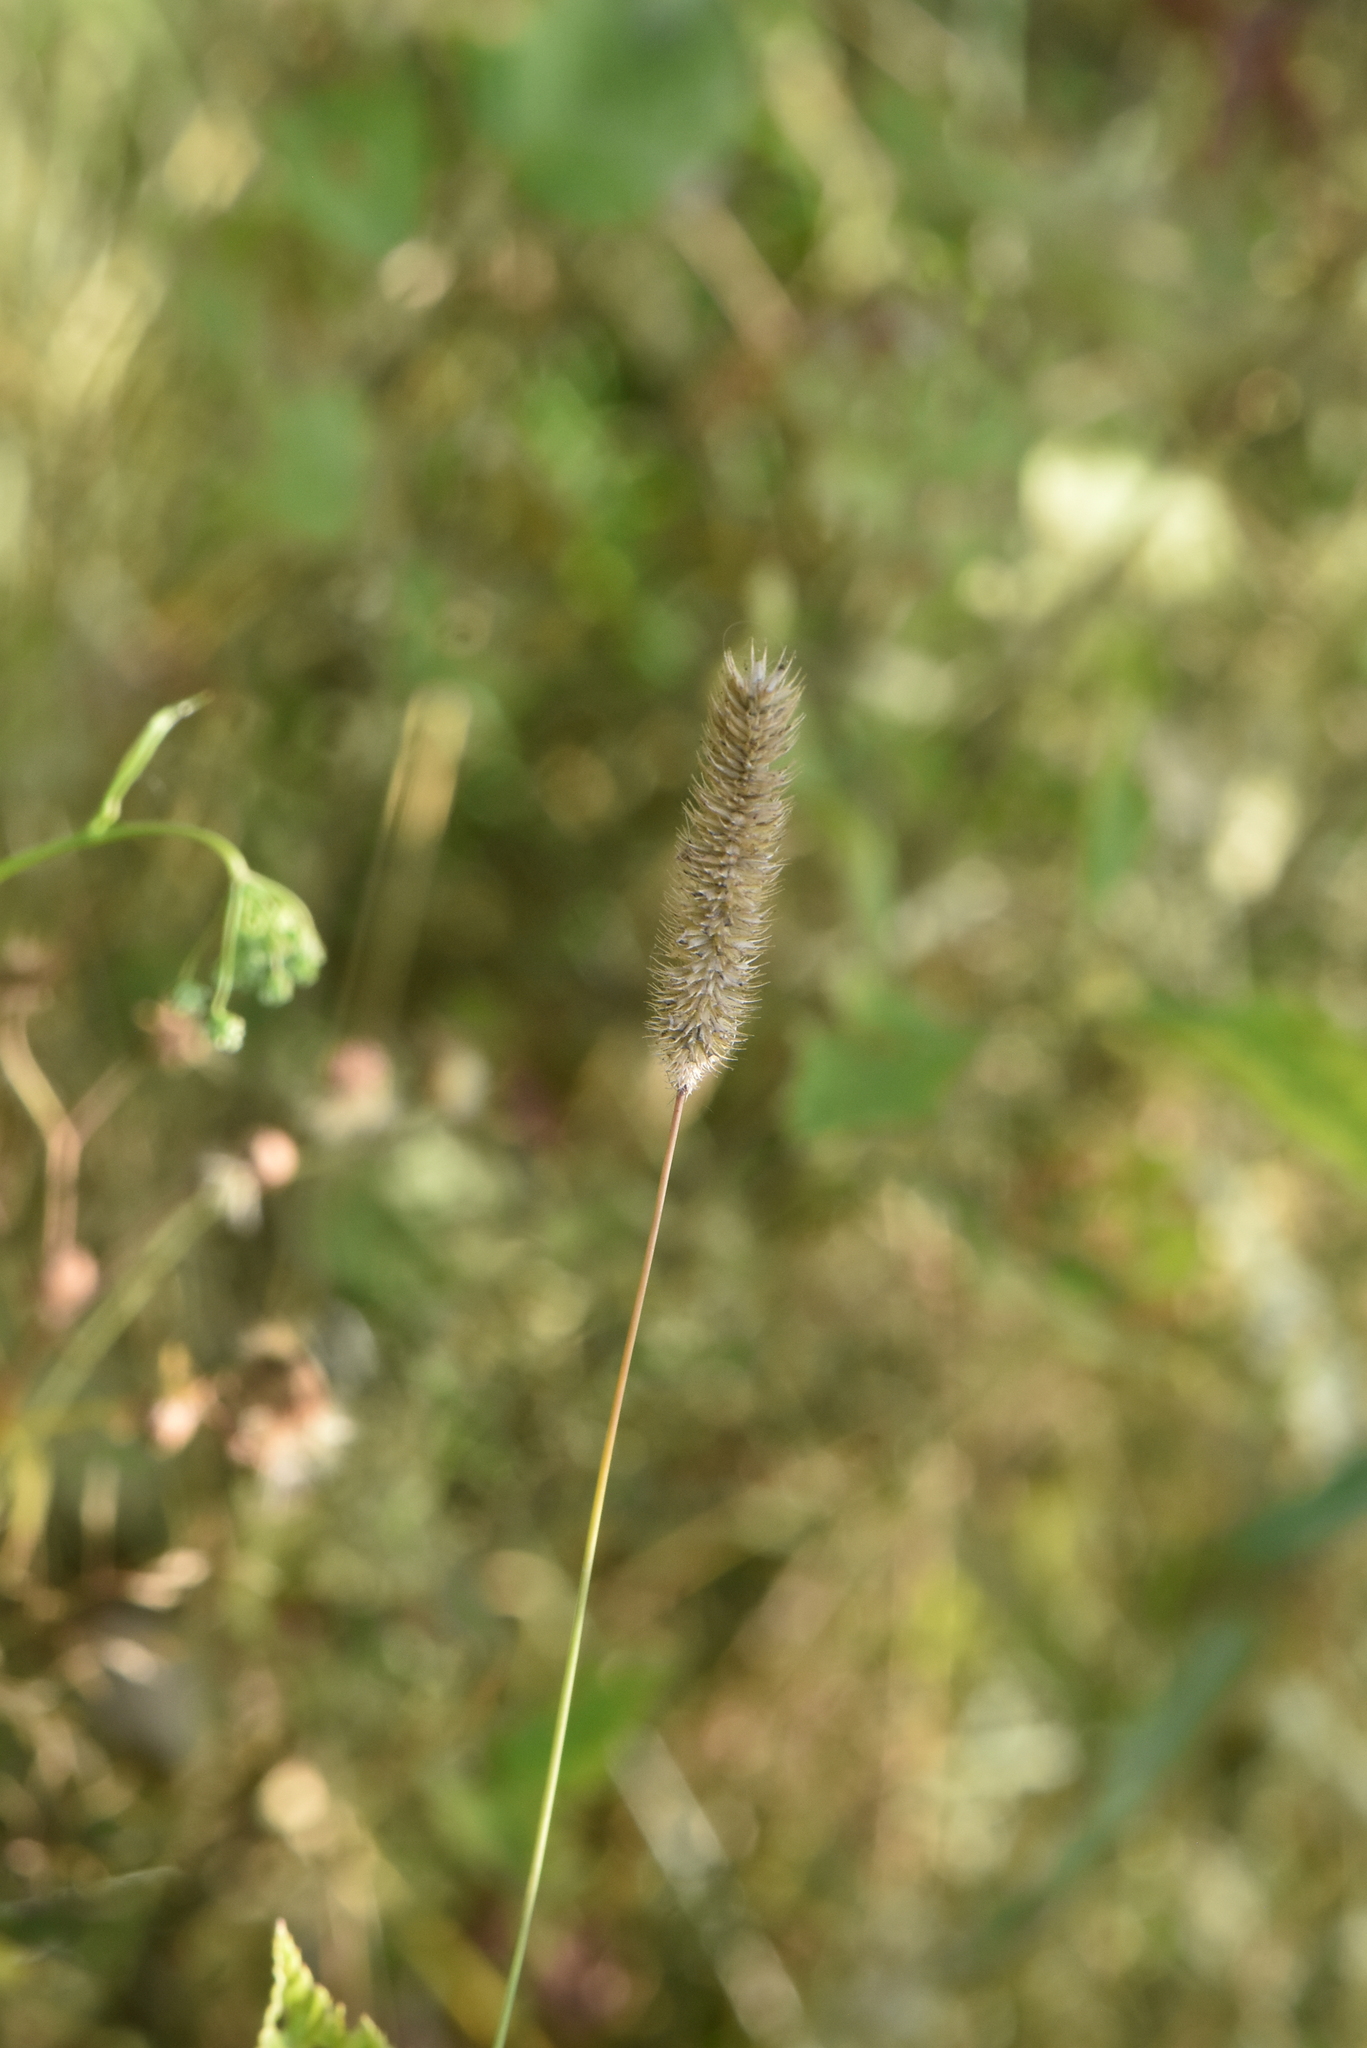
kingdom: Plantae
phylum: Tracheophyta
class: Liliopsida
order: Poales
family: Poaceae
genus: Phleum
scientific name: Phleum pratense
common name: Timothy grass
